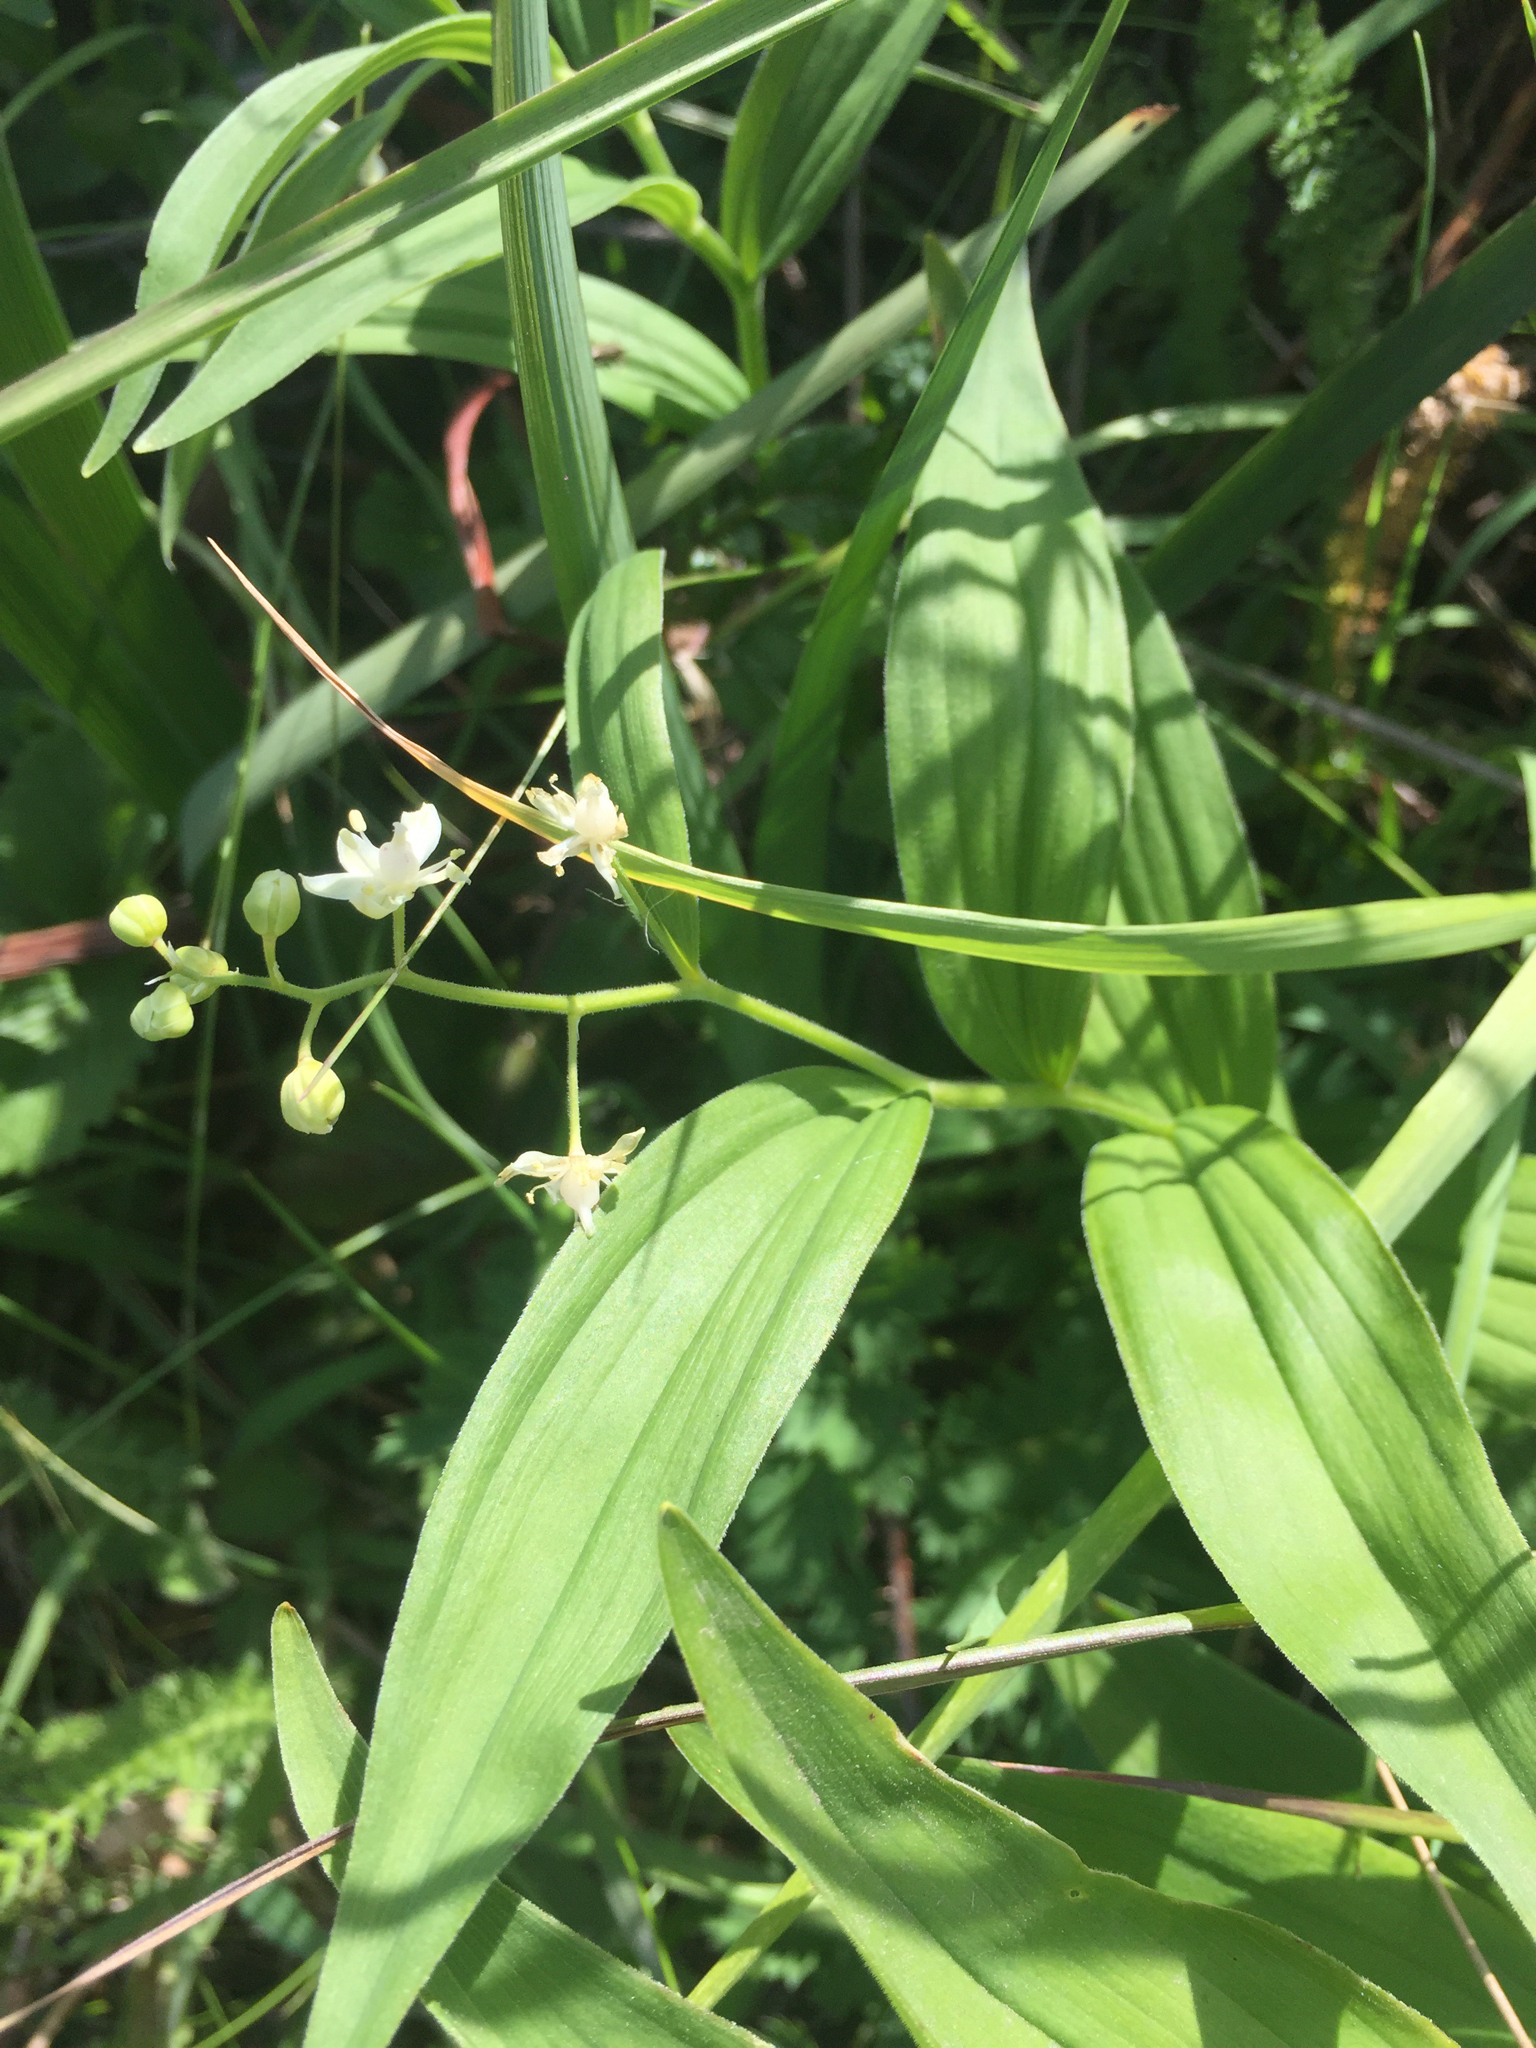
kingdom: Plantae
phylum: Tracheophyta
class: Liliopsida
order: Asparagales
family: Asparagaceae
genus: Maianthemum
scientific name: Maianthemum stellatum
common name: Little false solomon's seal
